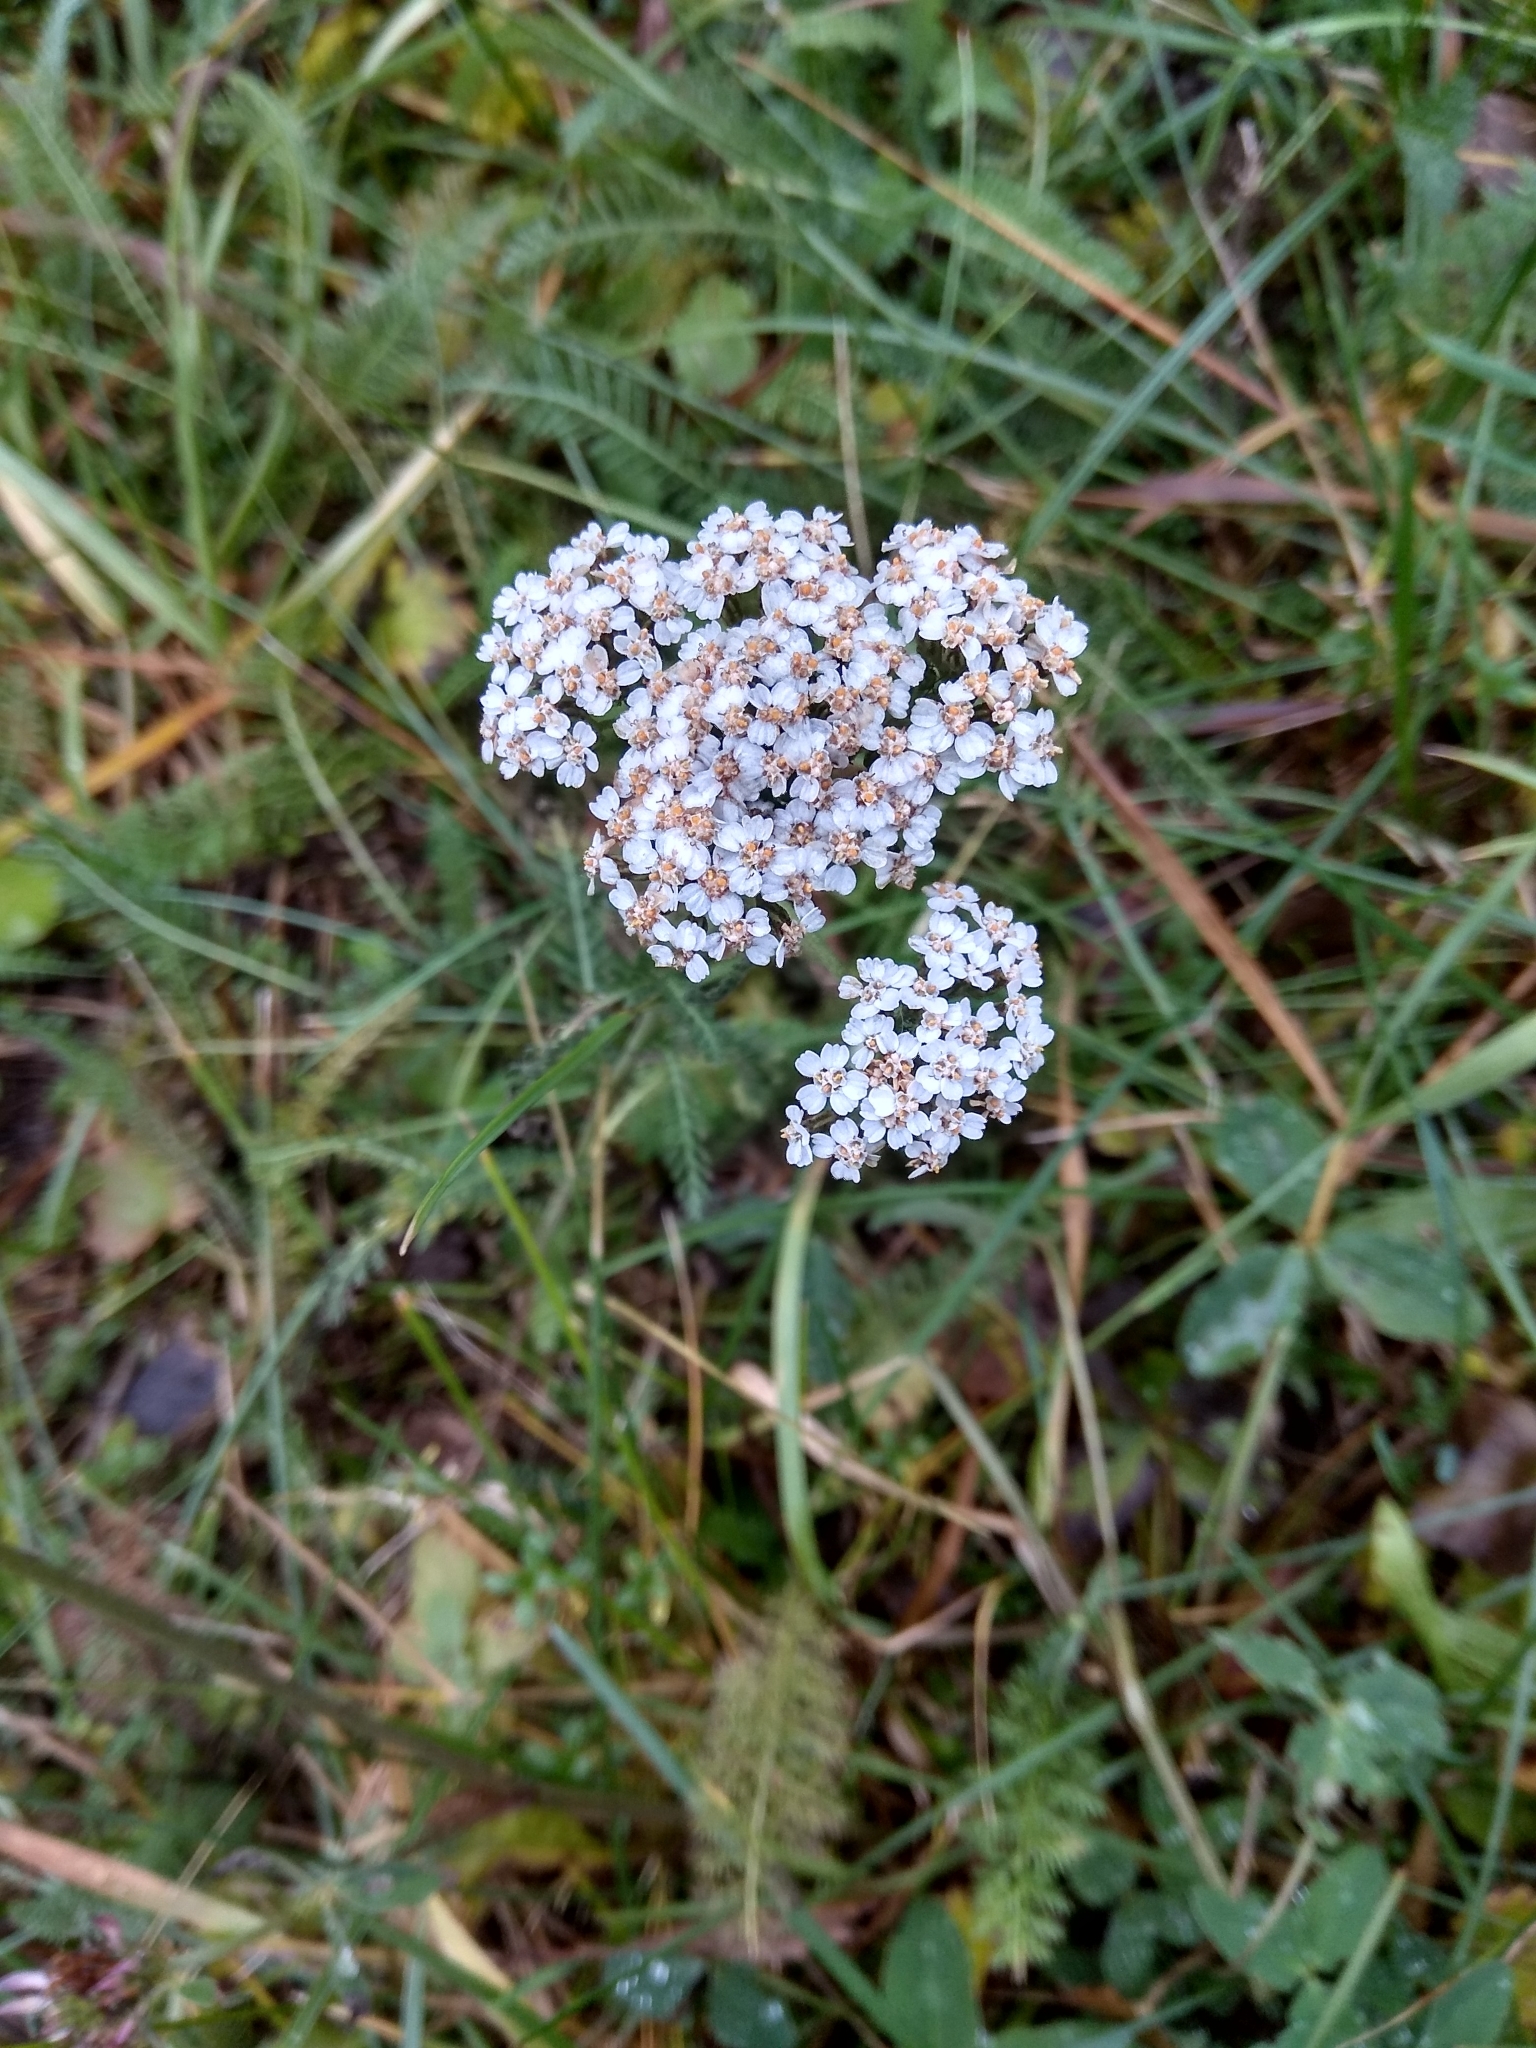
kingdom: Plantae
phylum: Tracheophyta
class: Magnoliopsida
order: Asterales
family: Asteraceae
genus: Achillea
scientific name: Achillea millefolium
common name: Yarrow
